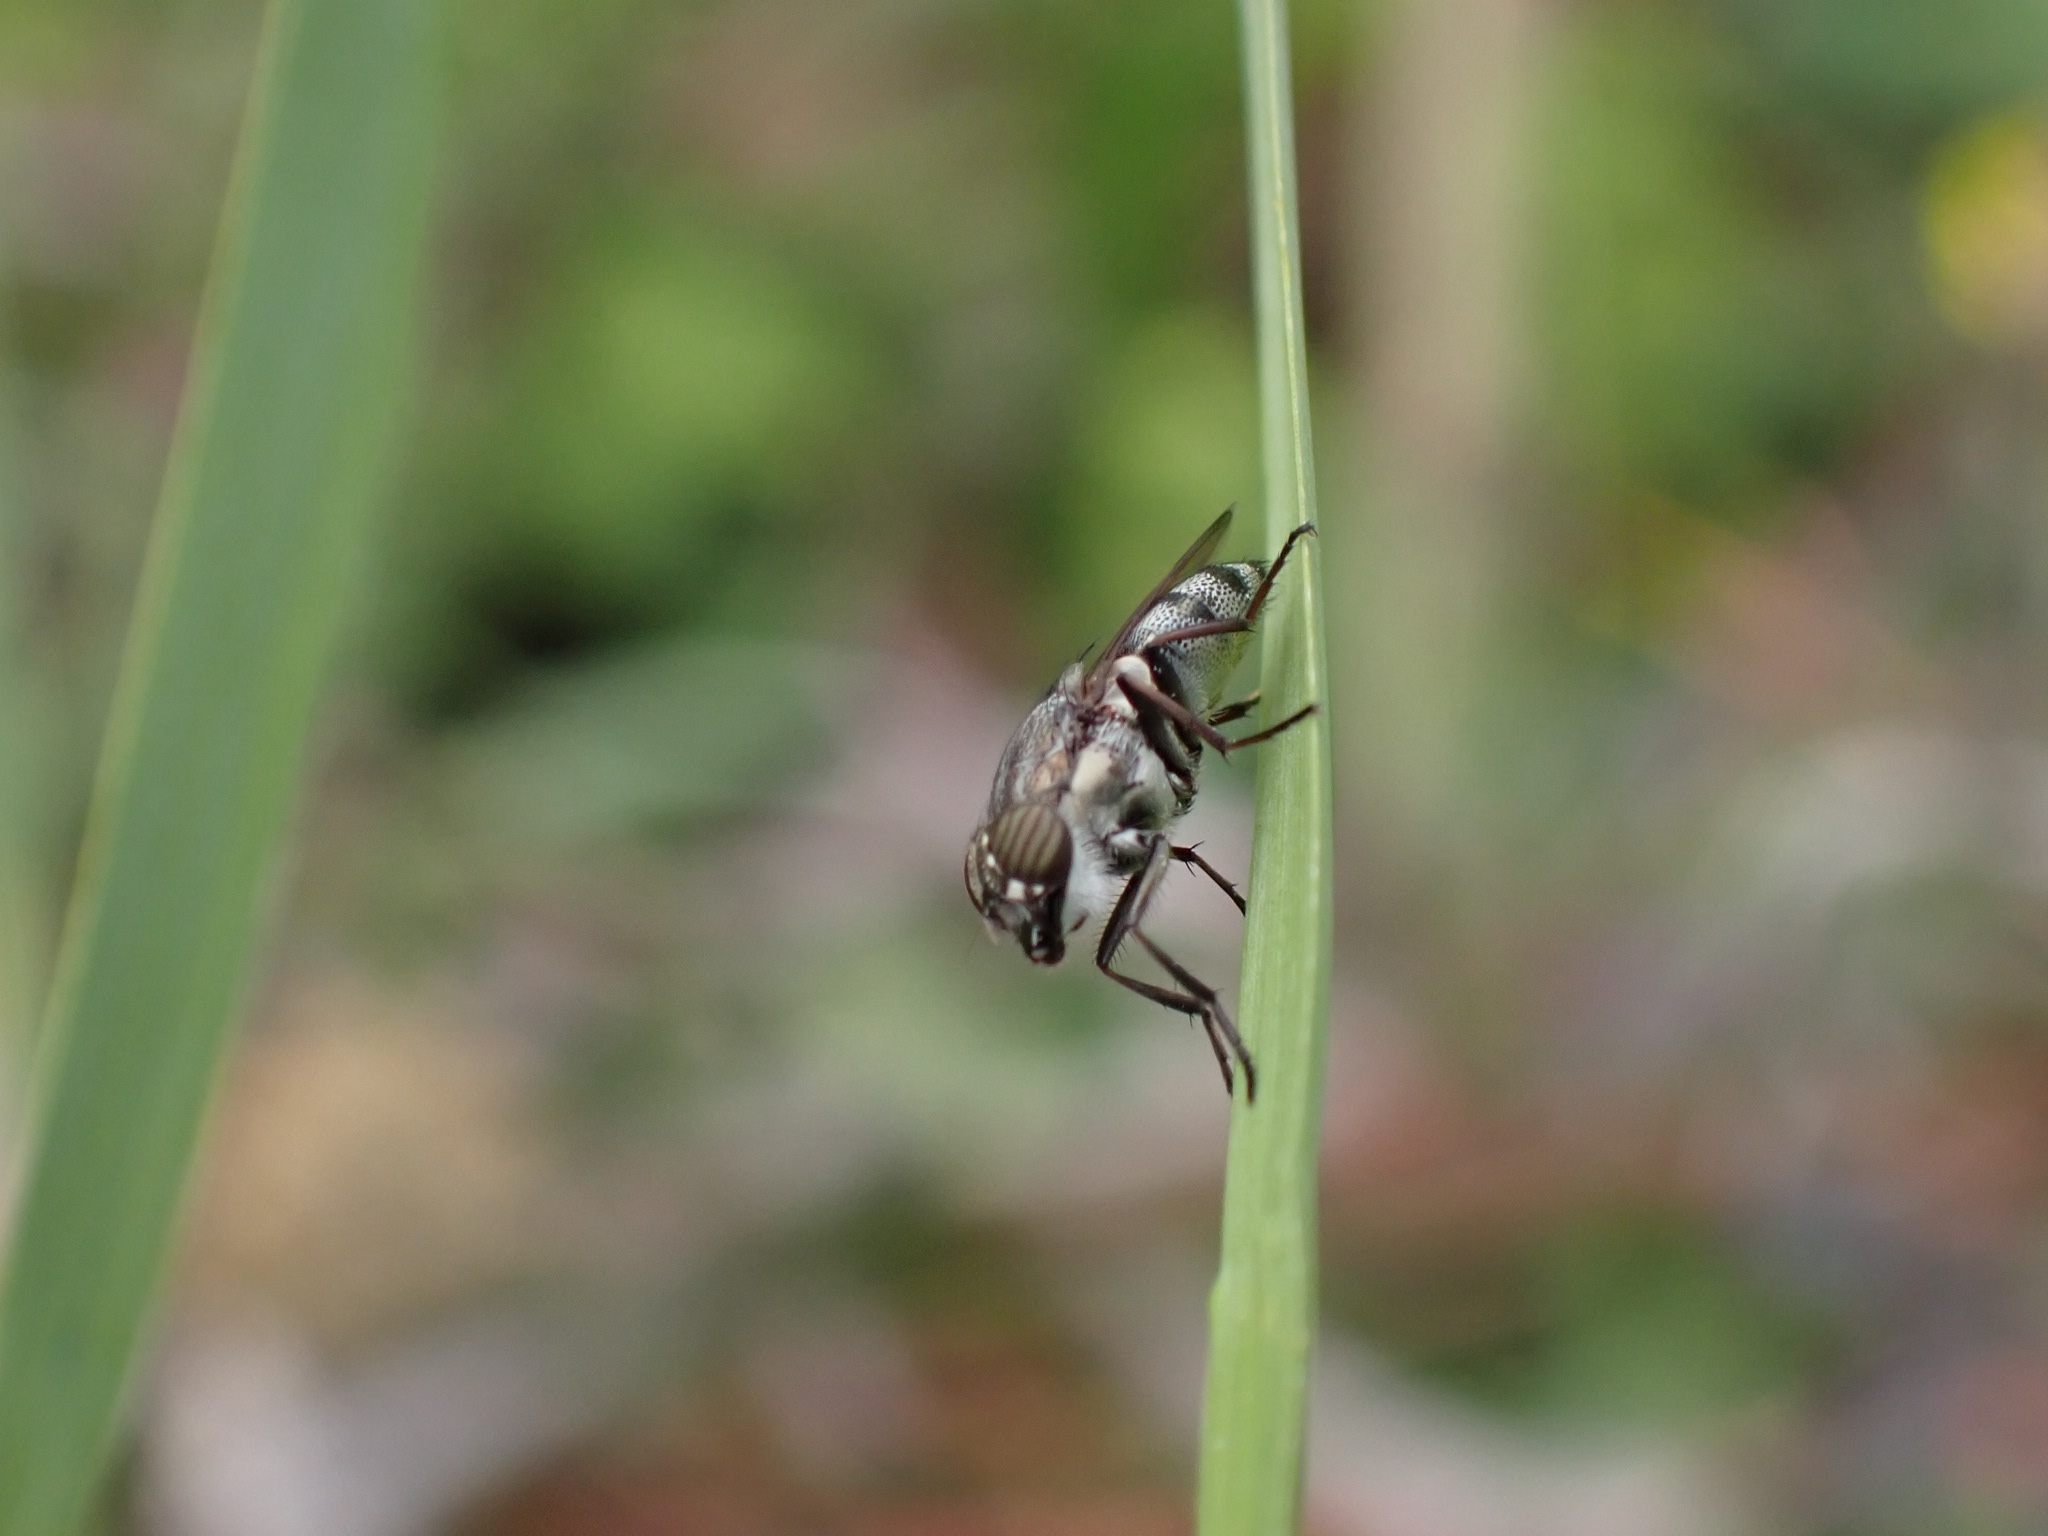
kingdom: Animalia
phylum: Arthropoda
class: Insecta
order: Diptera
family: Calliphoridae
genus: Stomorhina
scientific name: Stomorhina lunata
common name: Locust blowfly
